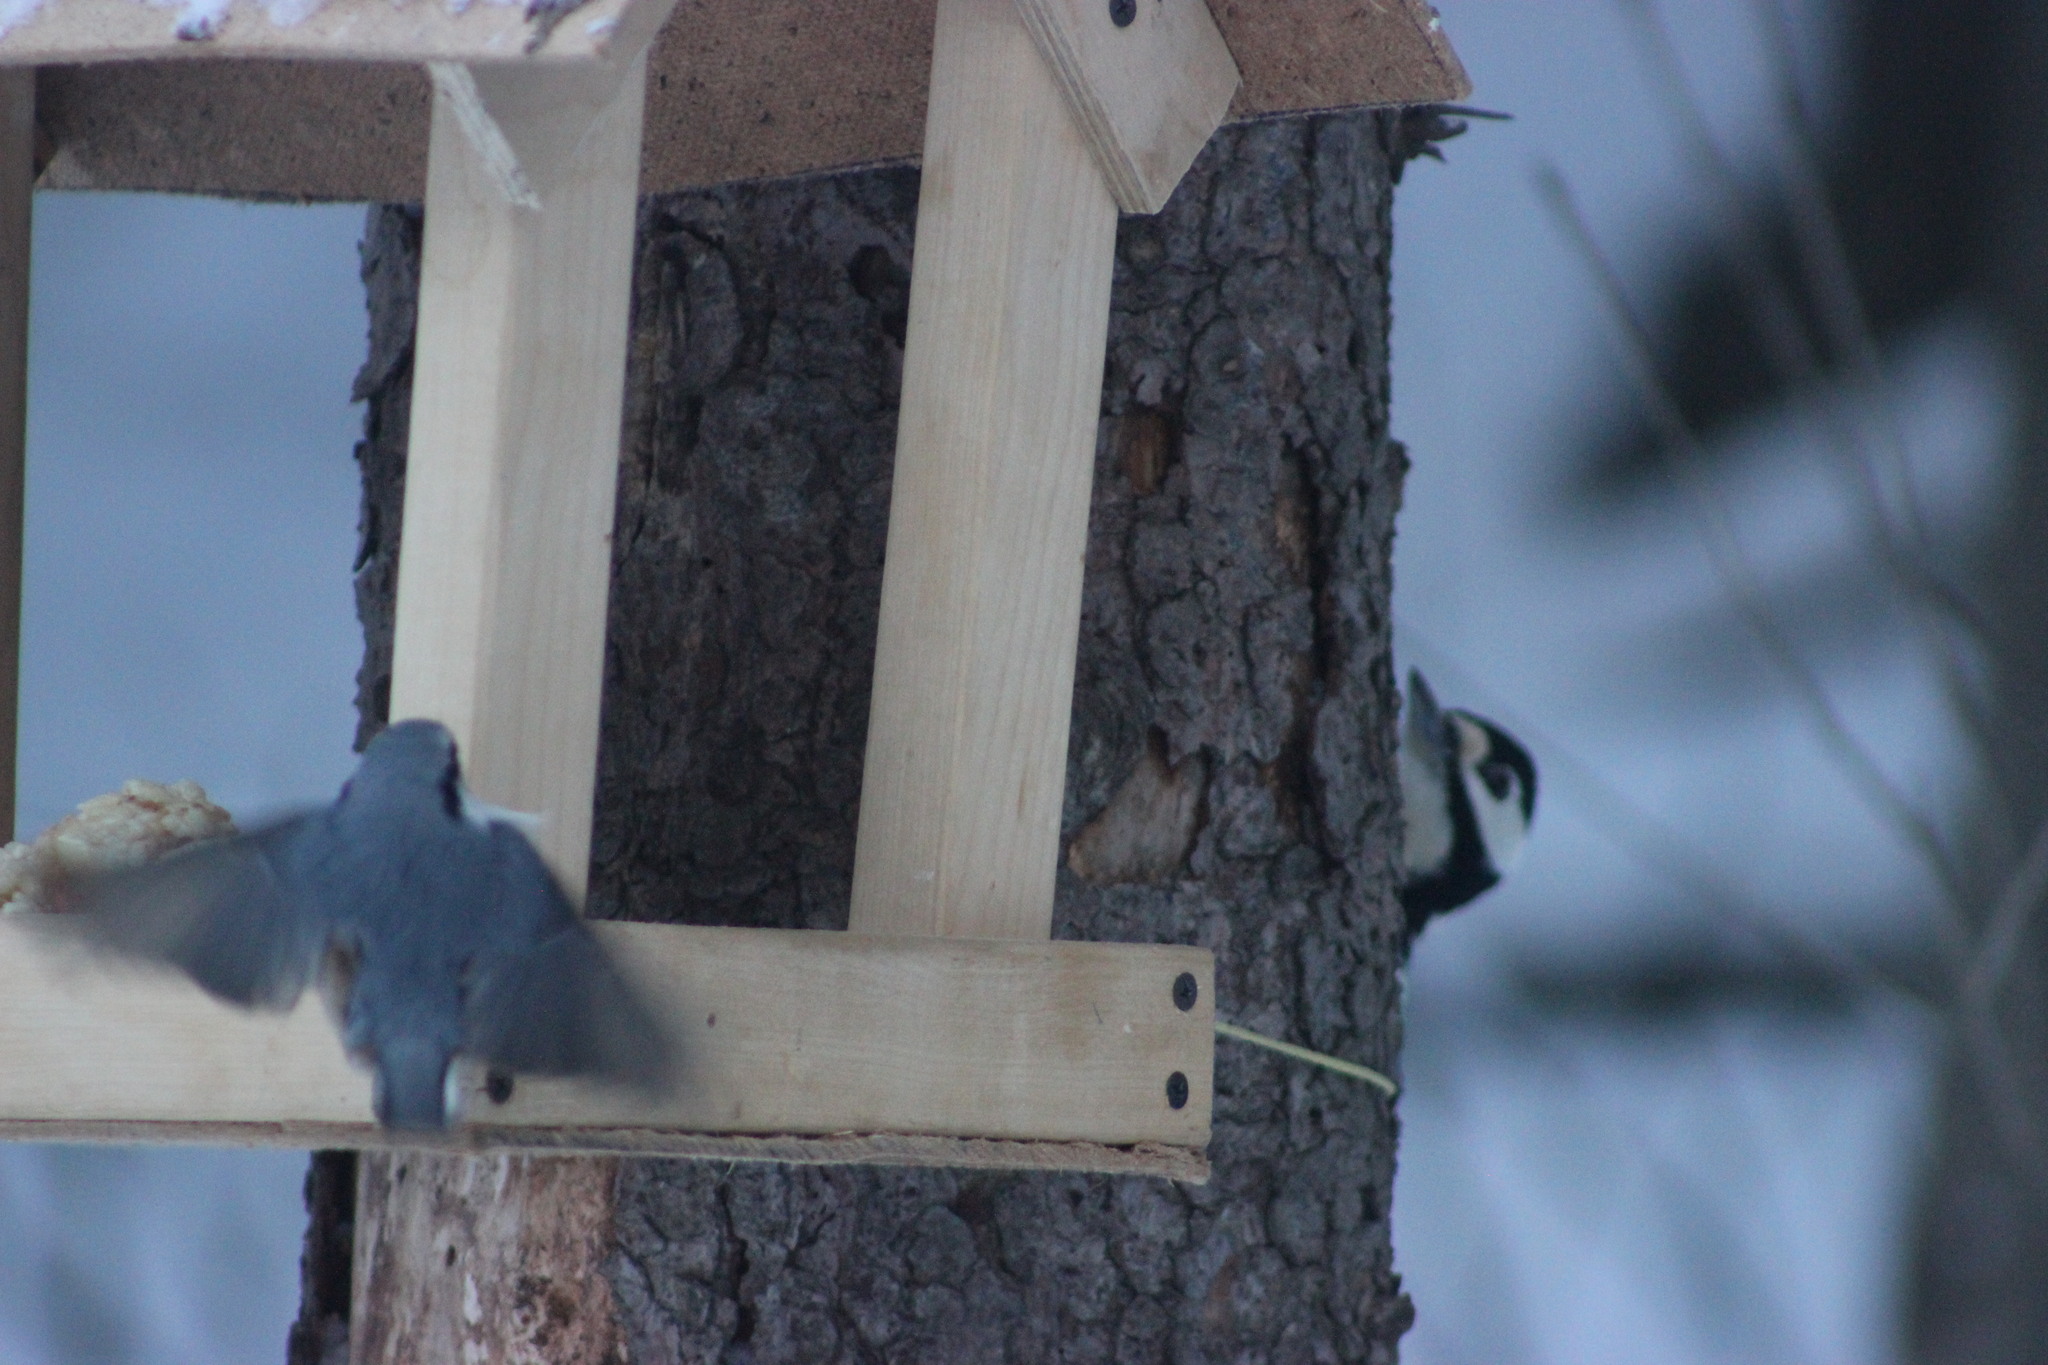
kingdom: Animalia
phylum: Chordata
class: Aves
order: Passeriformes
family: Sittidae
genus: Sitta
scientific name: Sitta europaea
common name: Eurasian nuthatch
